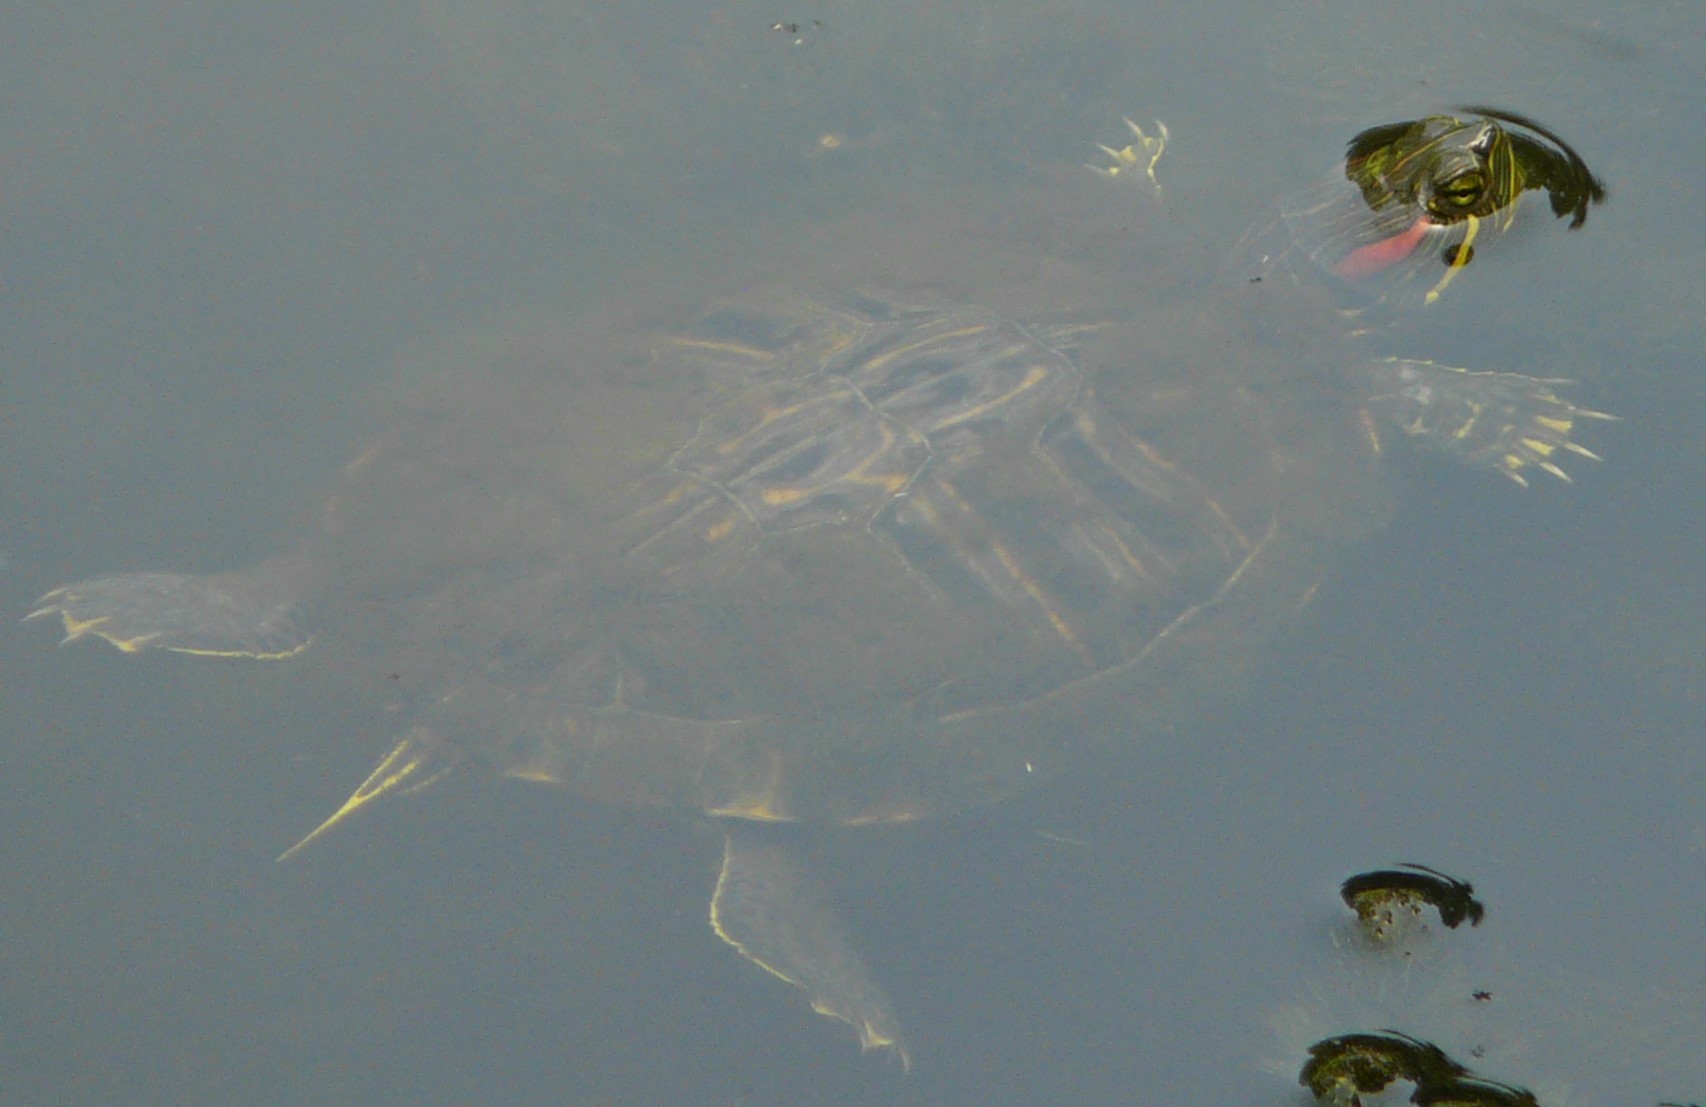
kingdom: Animalia
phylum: Chordata
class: Testudines
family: Emydidae
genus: Trachemys
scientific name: Trachemys scripta
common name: Slider
